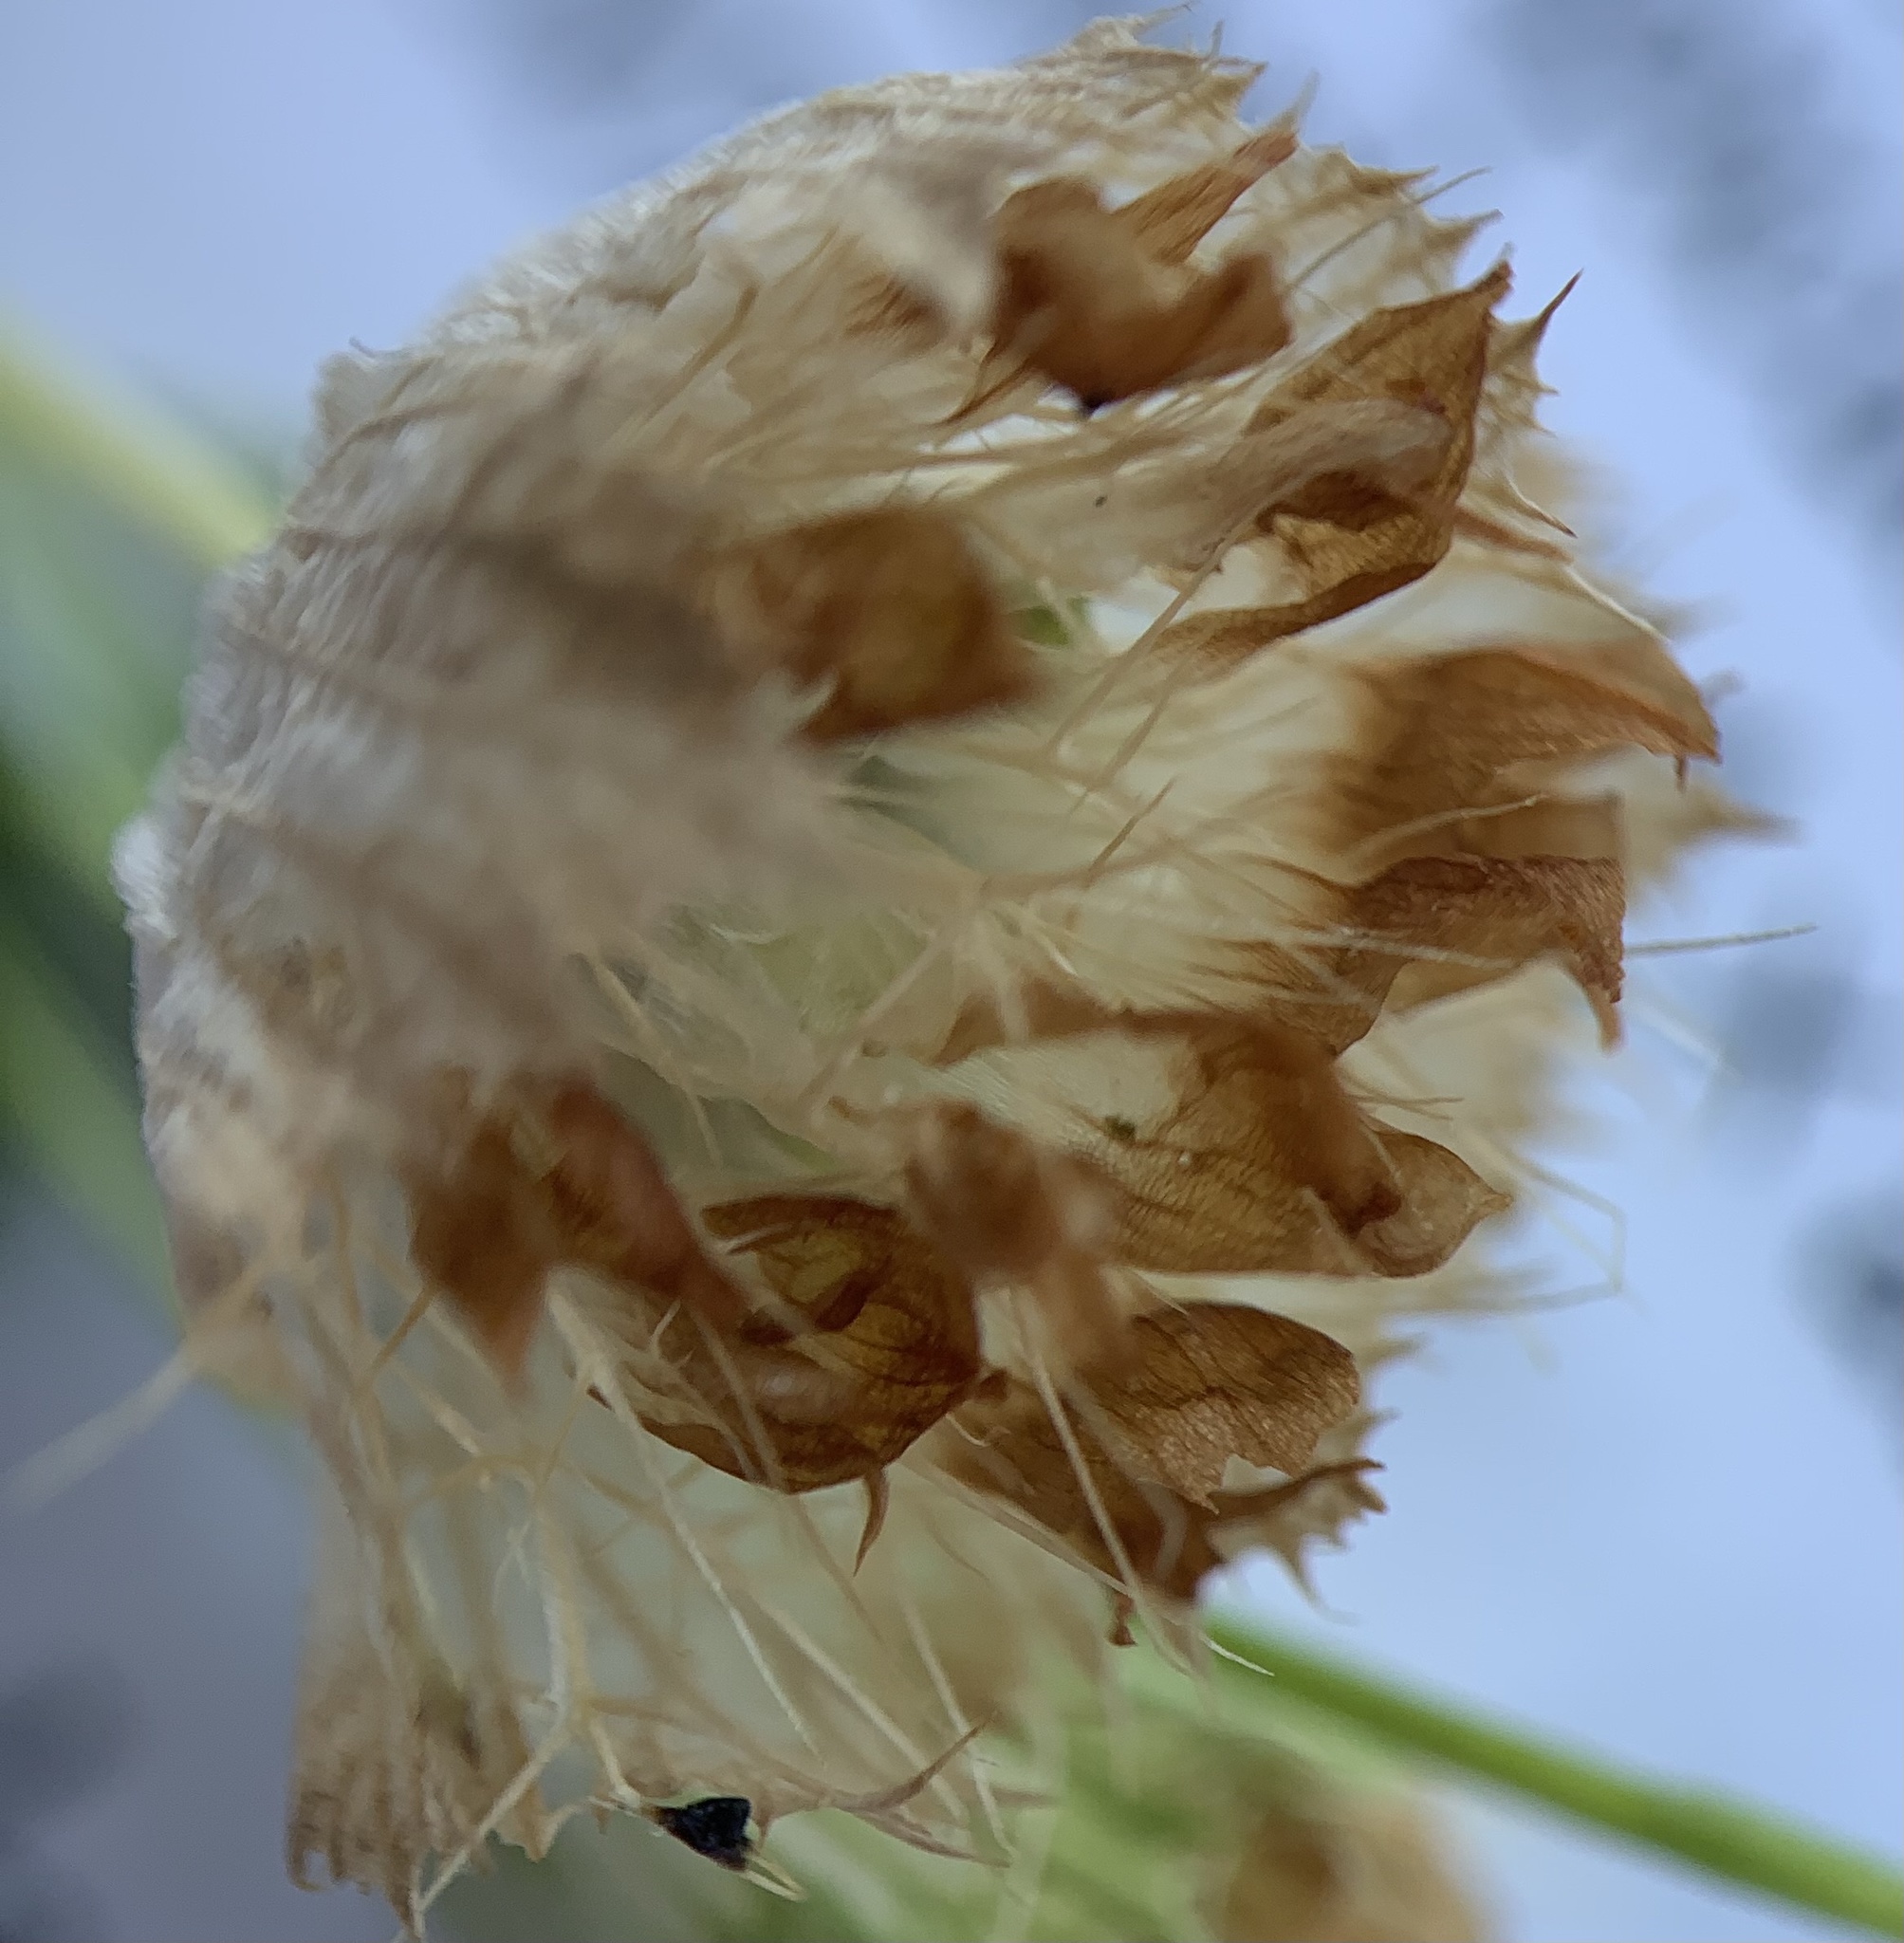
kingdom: Plantae
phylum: Tracheophyta
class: Magnoliopsida
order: Fabales
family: Fabaceae
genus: Trifolium
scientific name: Trifolium cyathiferum
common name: Bowl clover
